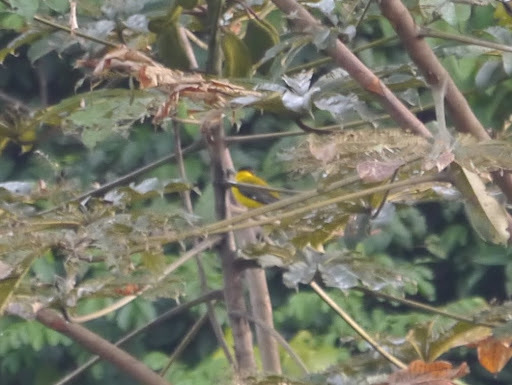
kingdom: Animalia
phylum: Chordata
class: Aves
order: Passeriformes
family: Oriolidae
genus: Oriolus
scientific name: Oriolus brachyrynchus
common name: Western oriole
